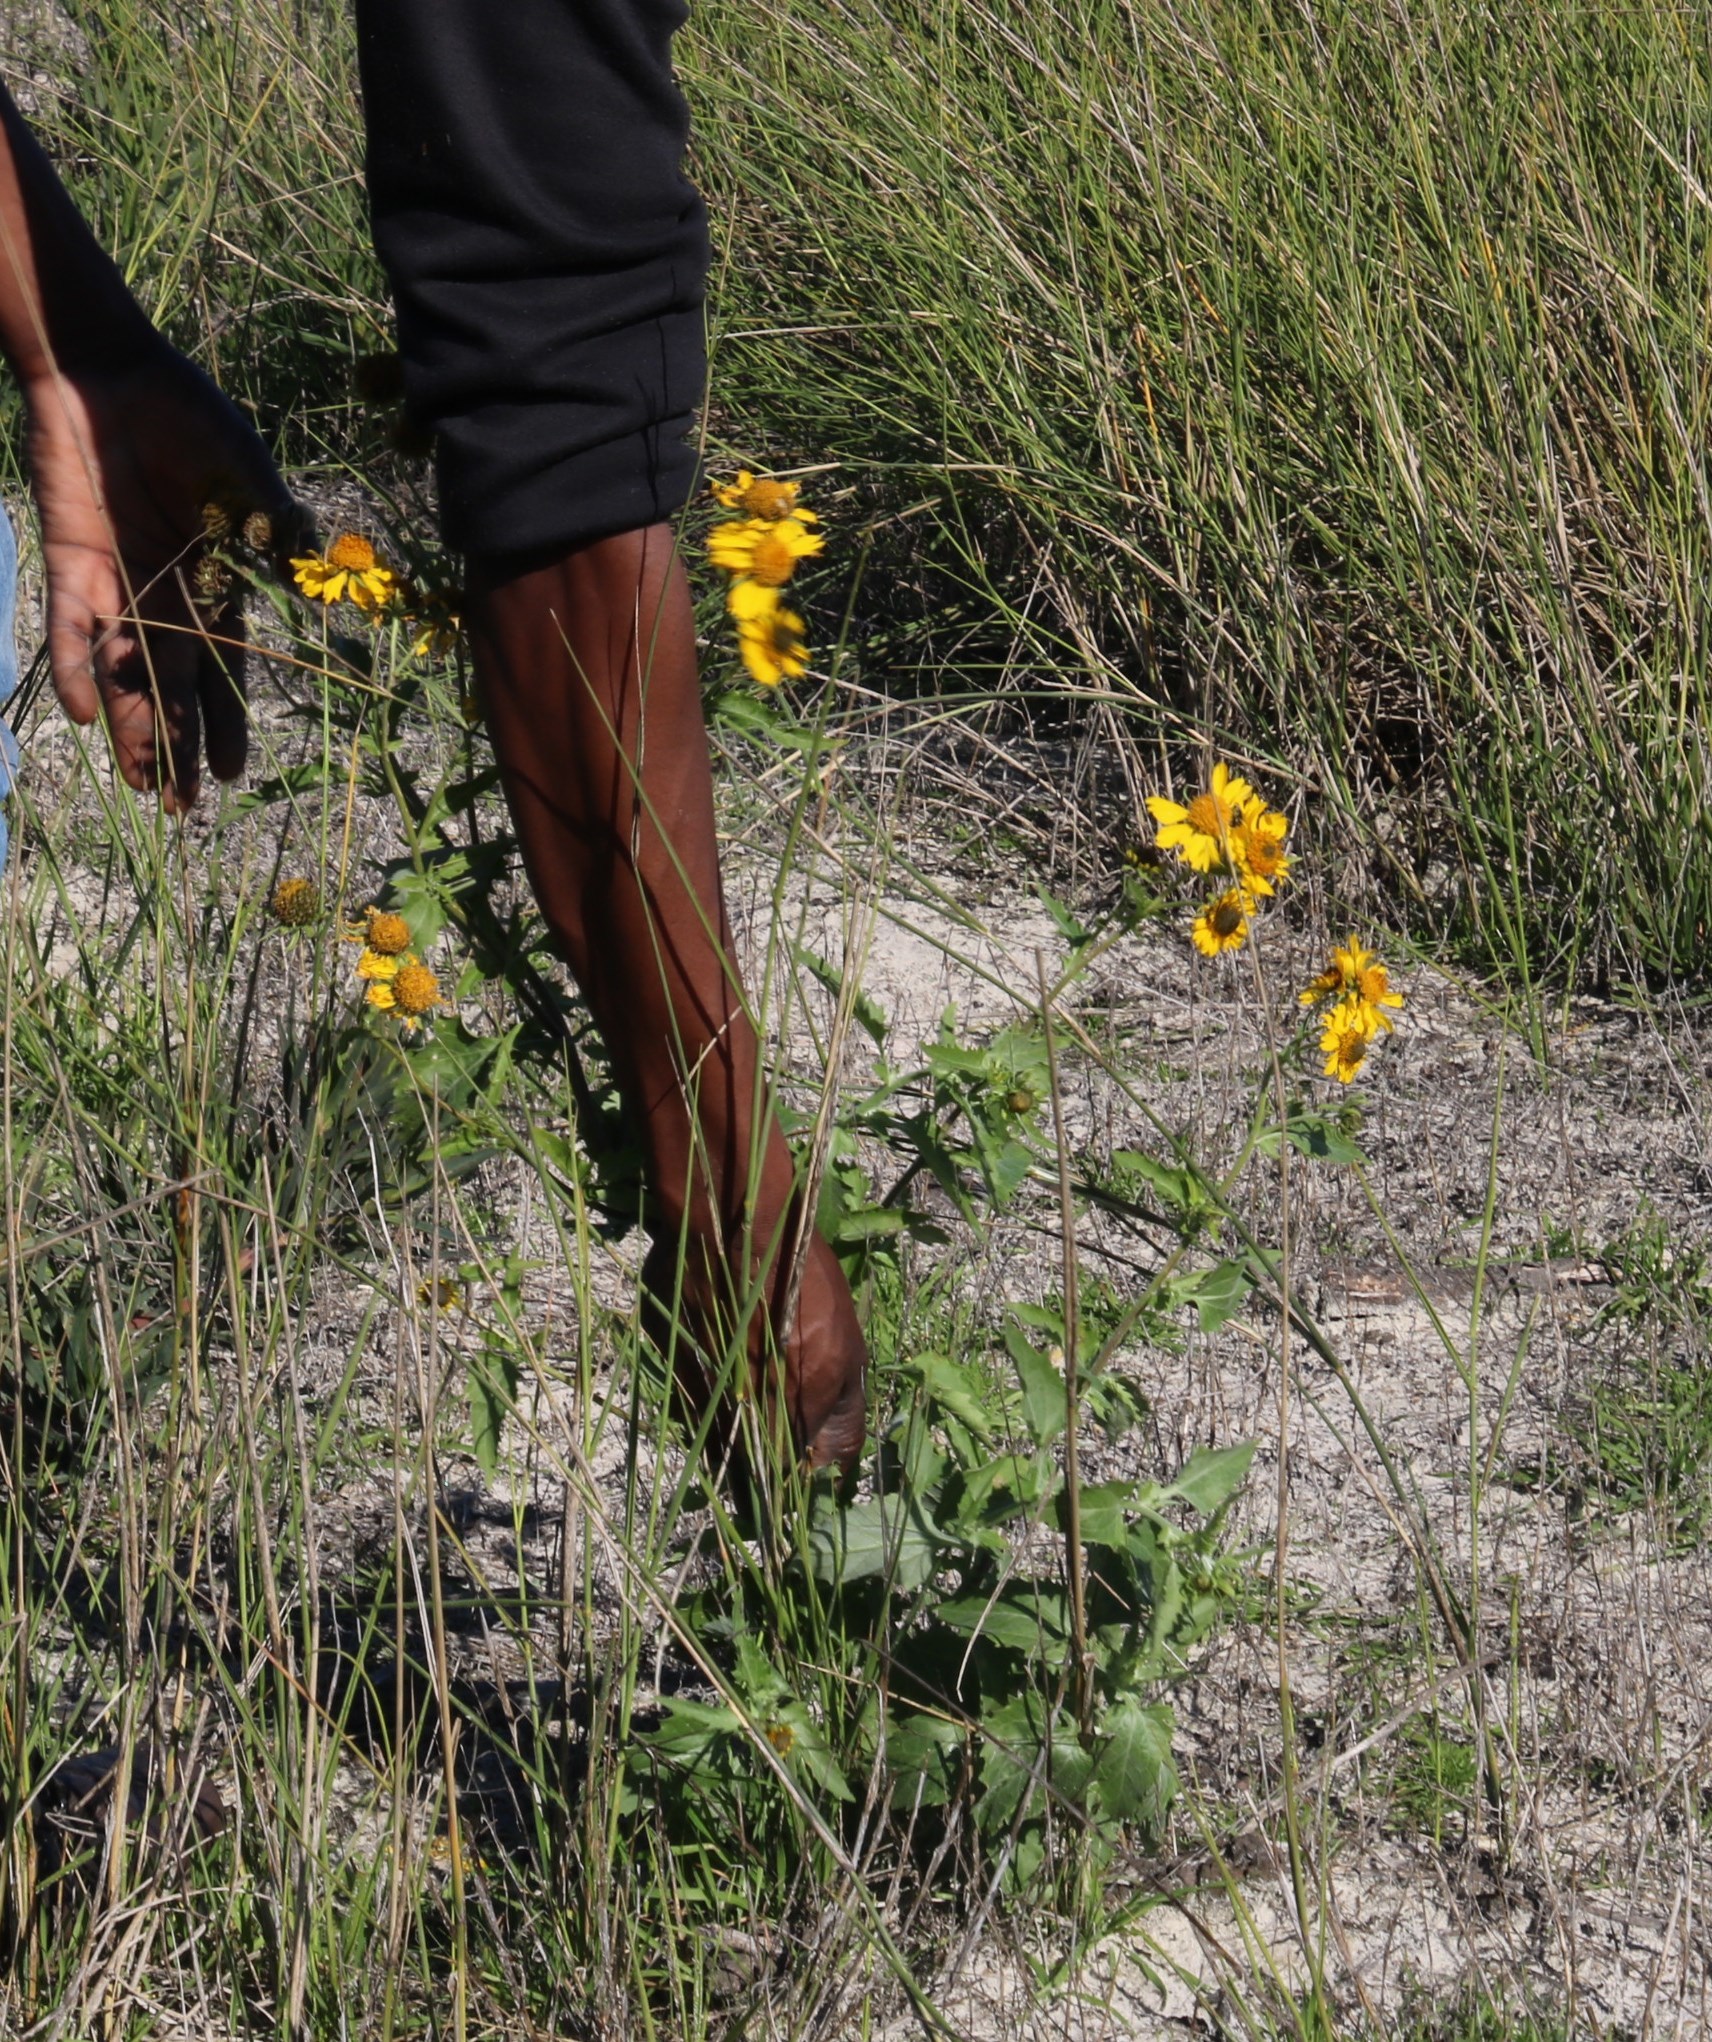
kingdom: Plantae
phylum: Tracheophyta
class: Magnoliopsida
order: Asterales
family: Asteraceae
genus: Verbesina
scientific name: Verbesina encelioides
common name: Golden crownbeard
